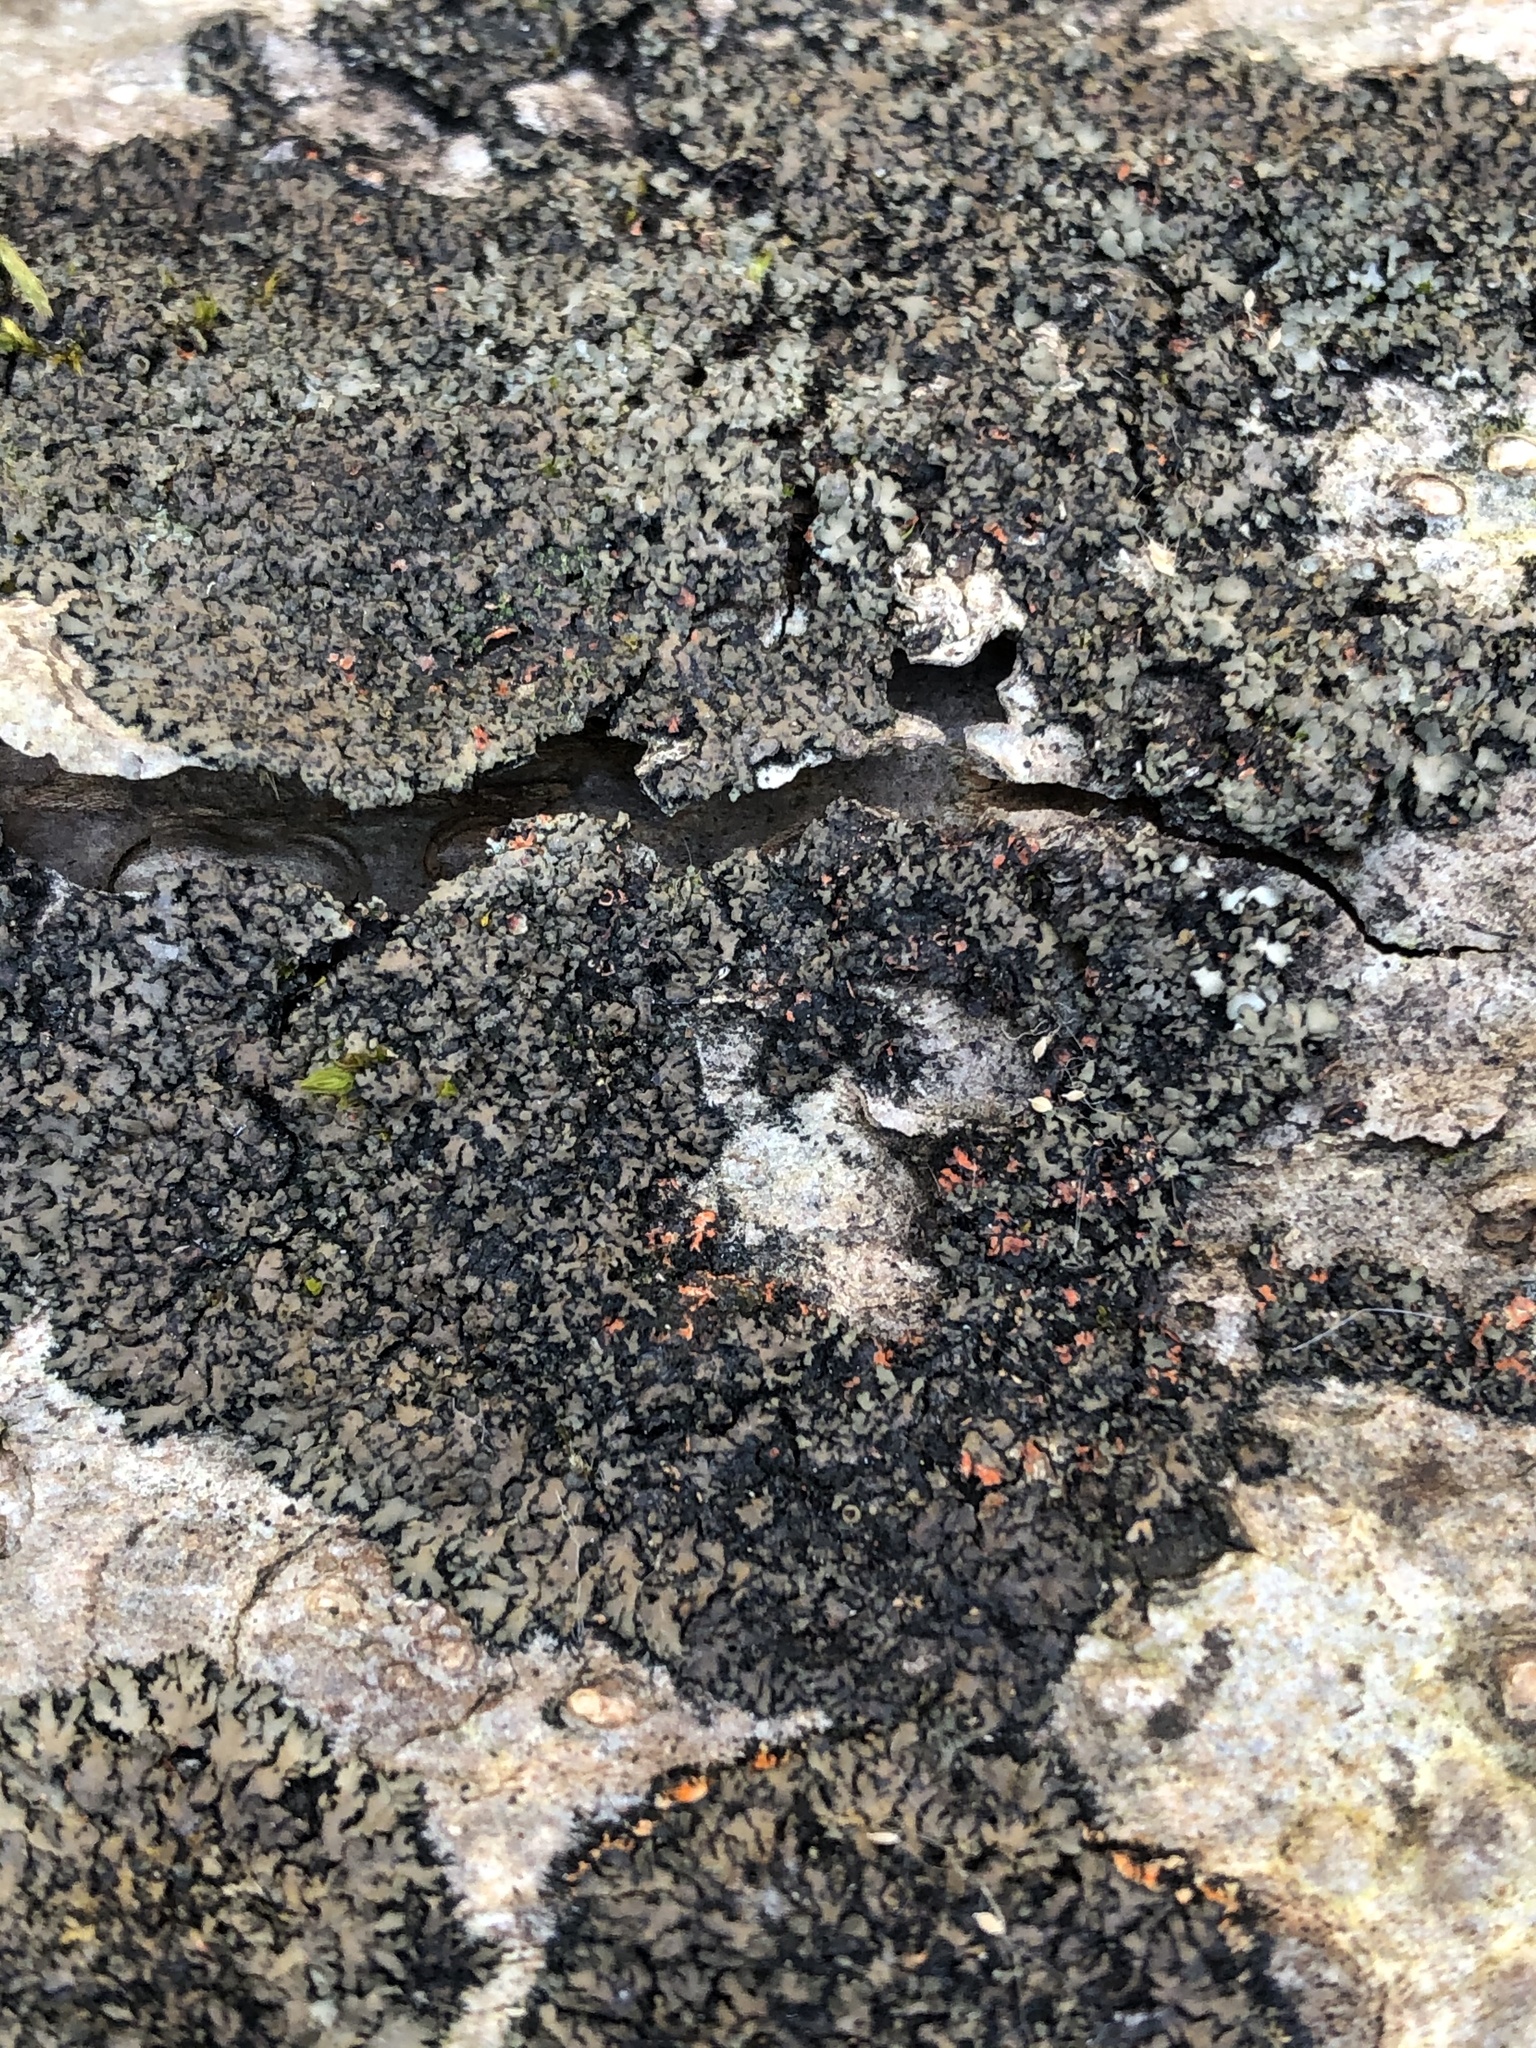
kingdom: Fungi
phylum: Ascomycota
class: Lecanoromycetes
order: Caliciales
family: Physciaceae
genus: Phaeophyscia
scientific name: Phaeophyscia rubropulchra
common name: Orange-cored shadow lichen
